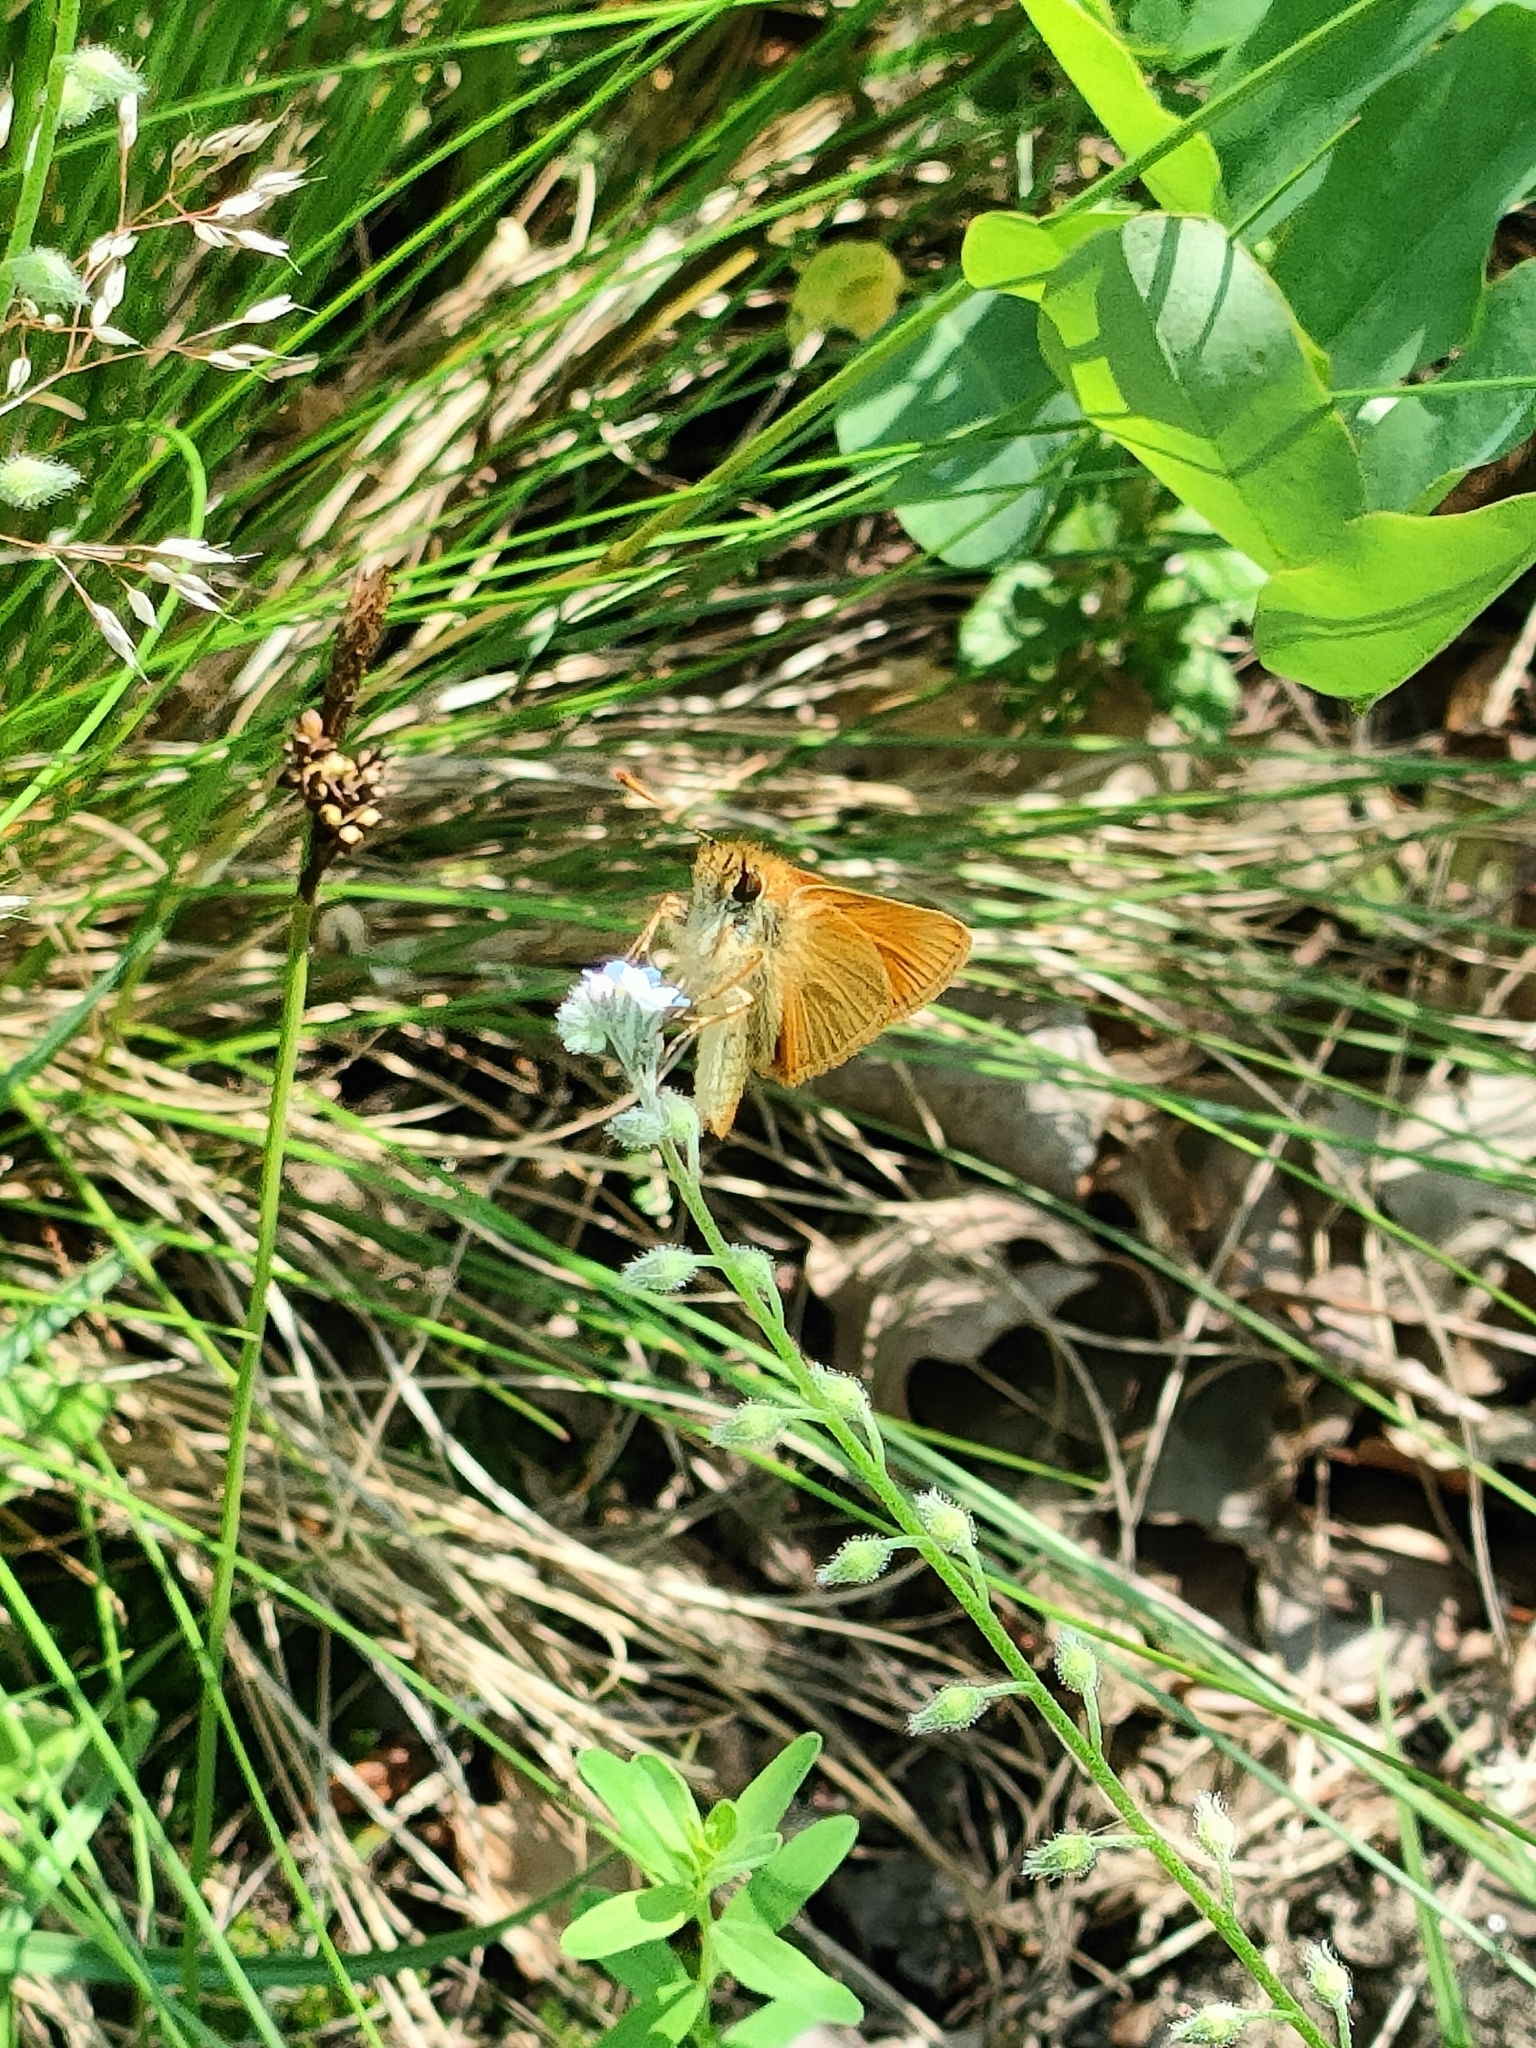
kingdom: Animalia
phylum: Arthropoda
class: Insecta
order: Lepidoptera
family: Hesperiidae
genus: Thymelicus
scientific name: Thymelicus sylvestris
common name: Small skipper
